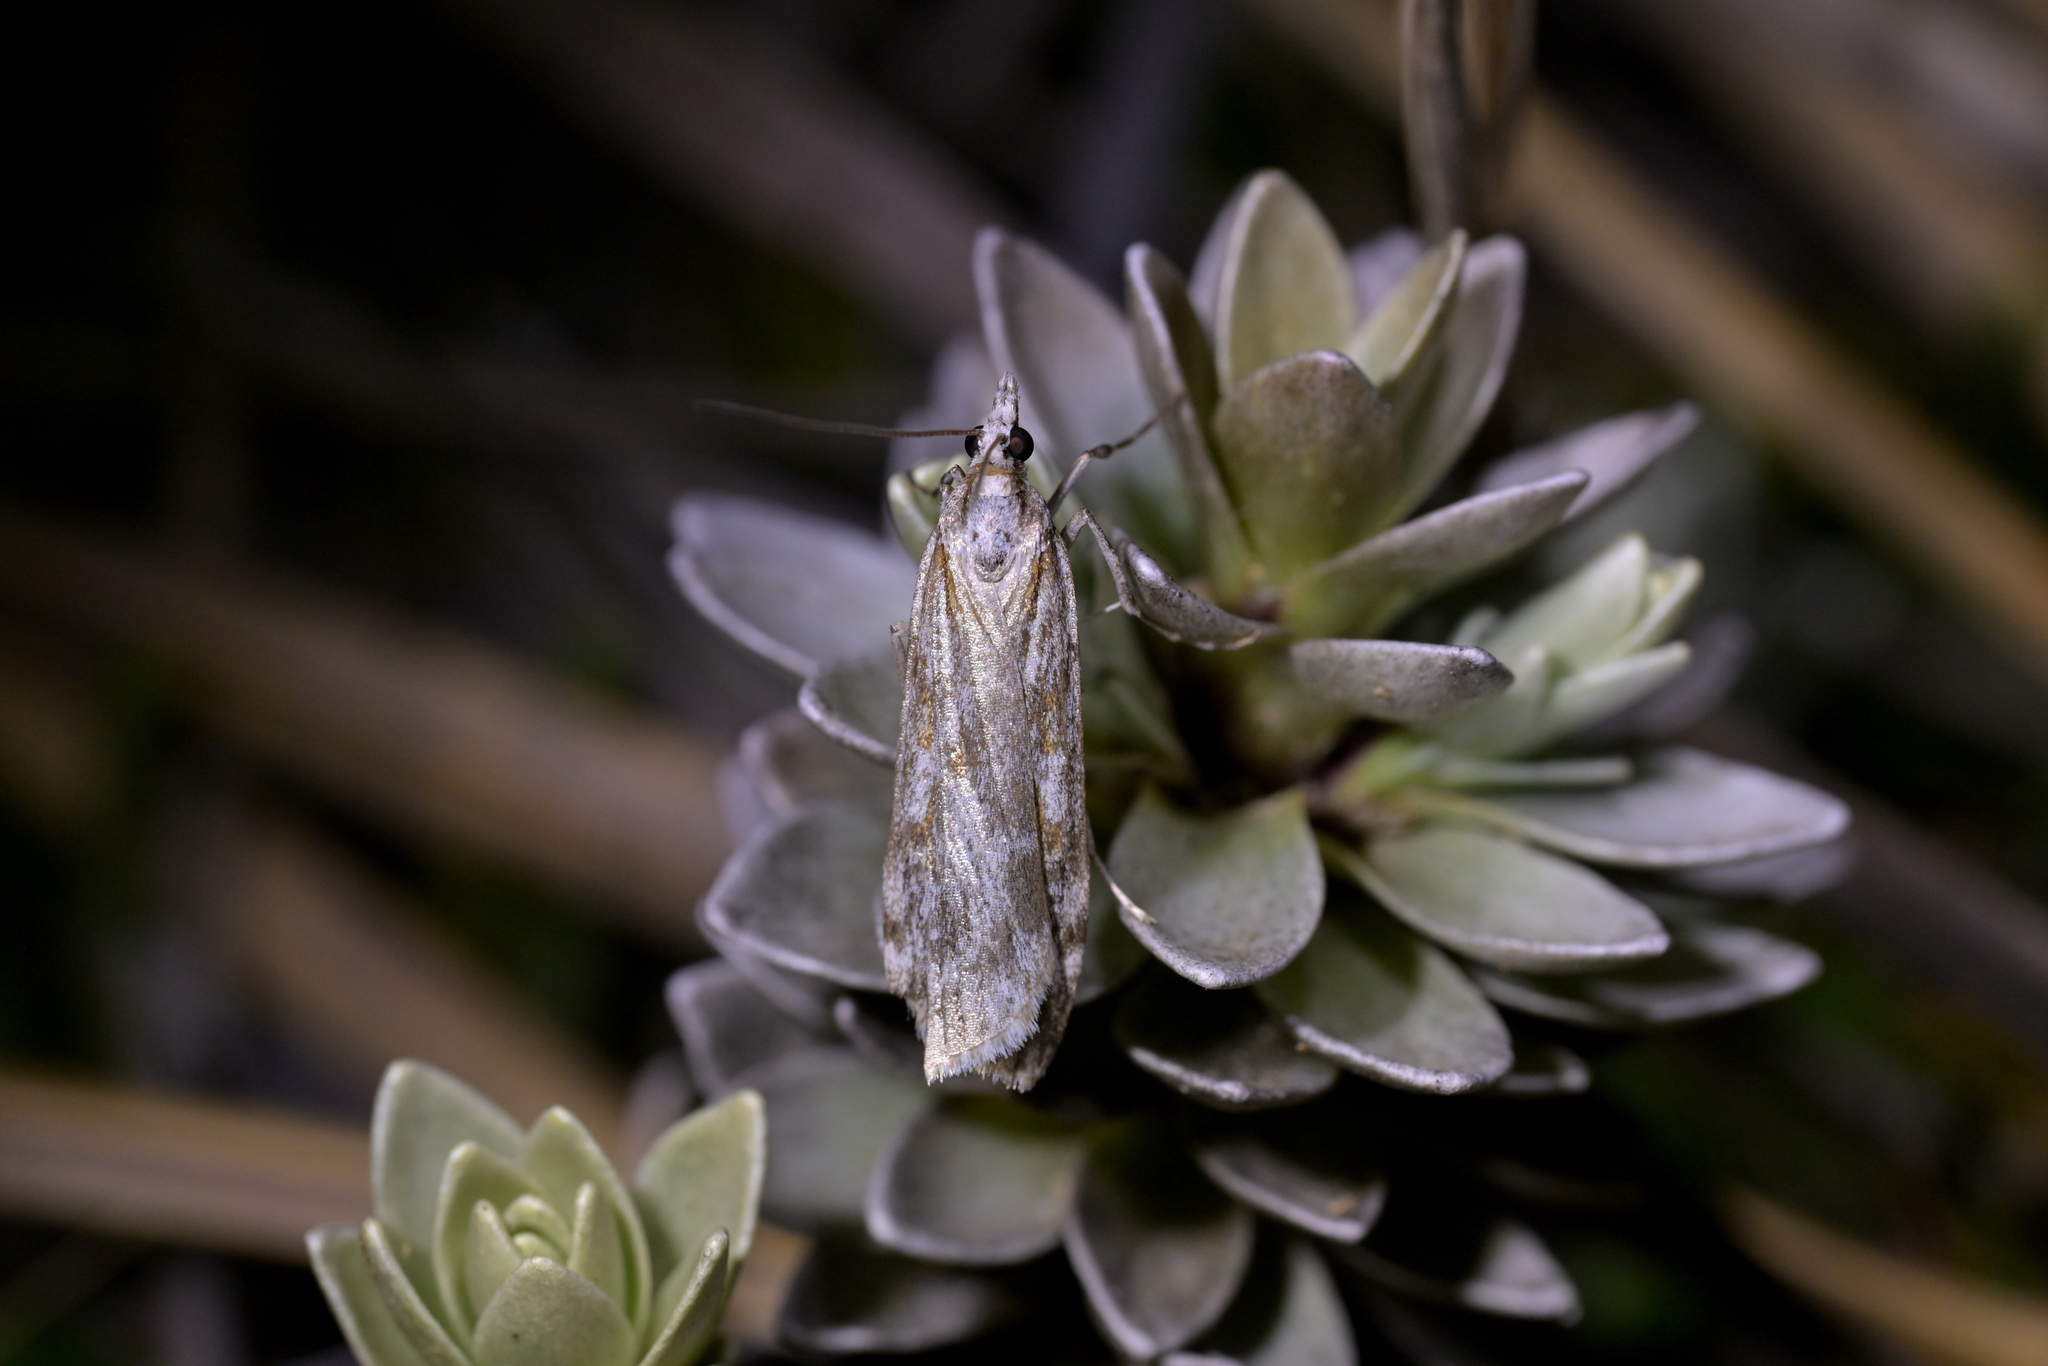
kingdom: Animalia
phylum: Arthropoda
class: Insecta
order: Lepidoptera
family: Crambidae
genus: Scoparia
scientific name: Scoparia halopis
